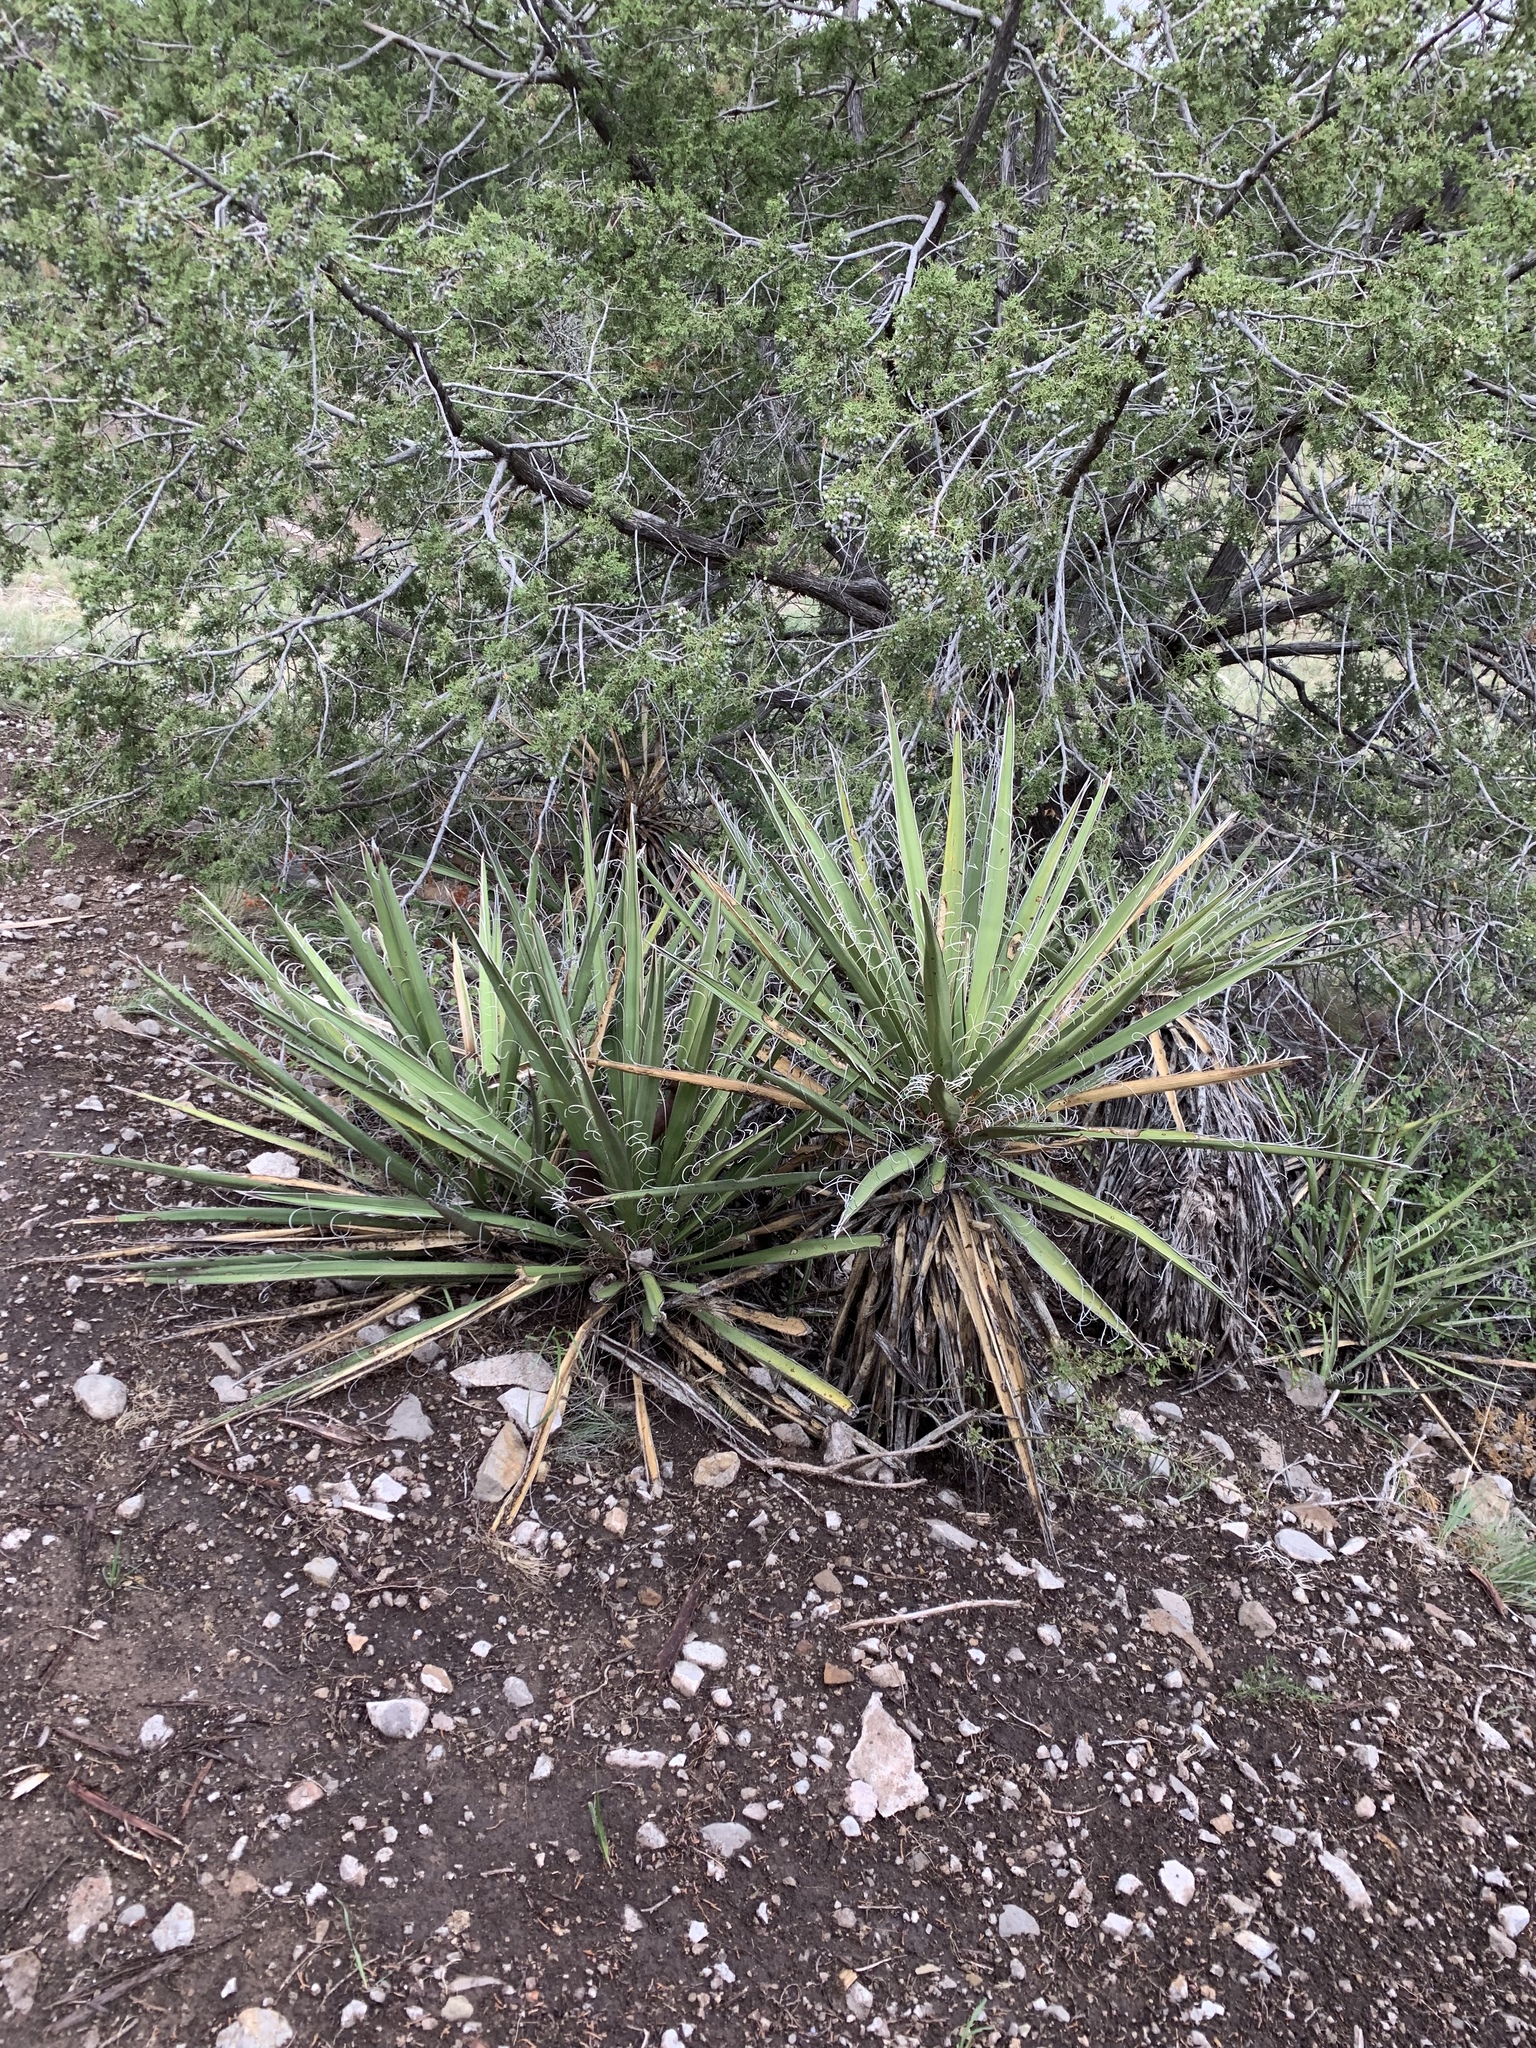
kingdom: Plantae
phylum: Tracheophyta
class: Liliopsida
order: Asparagales
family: Asparagaceae
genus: Yucca
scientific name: Yucca baccata
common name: Banana yucca
